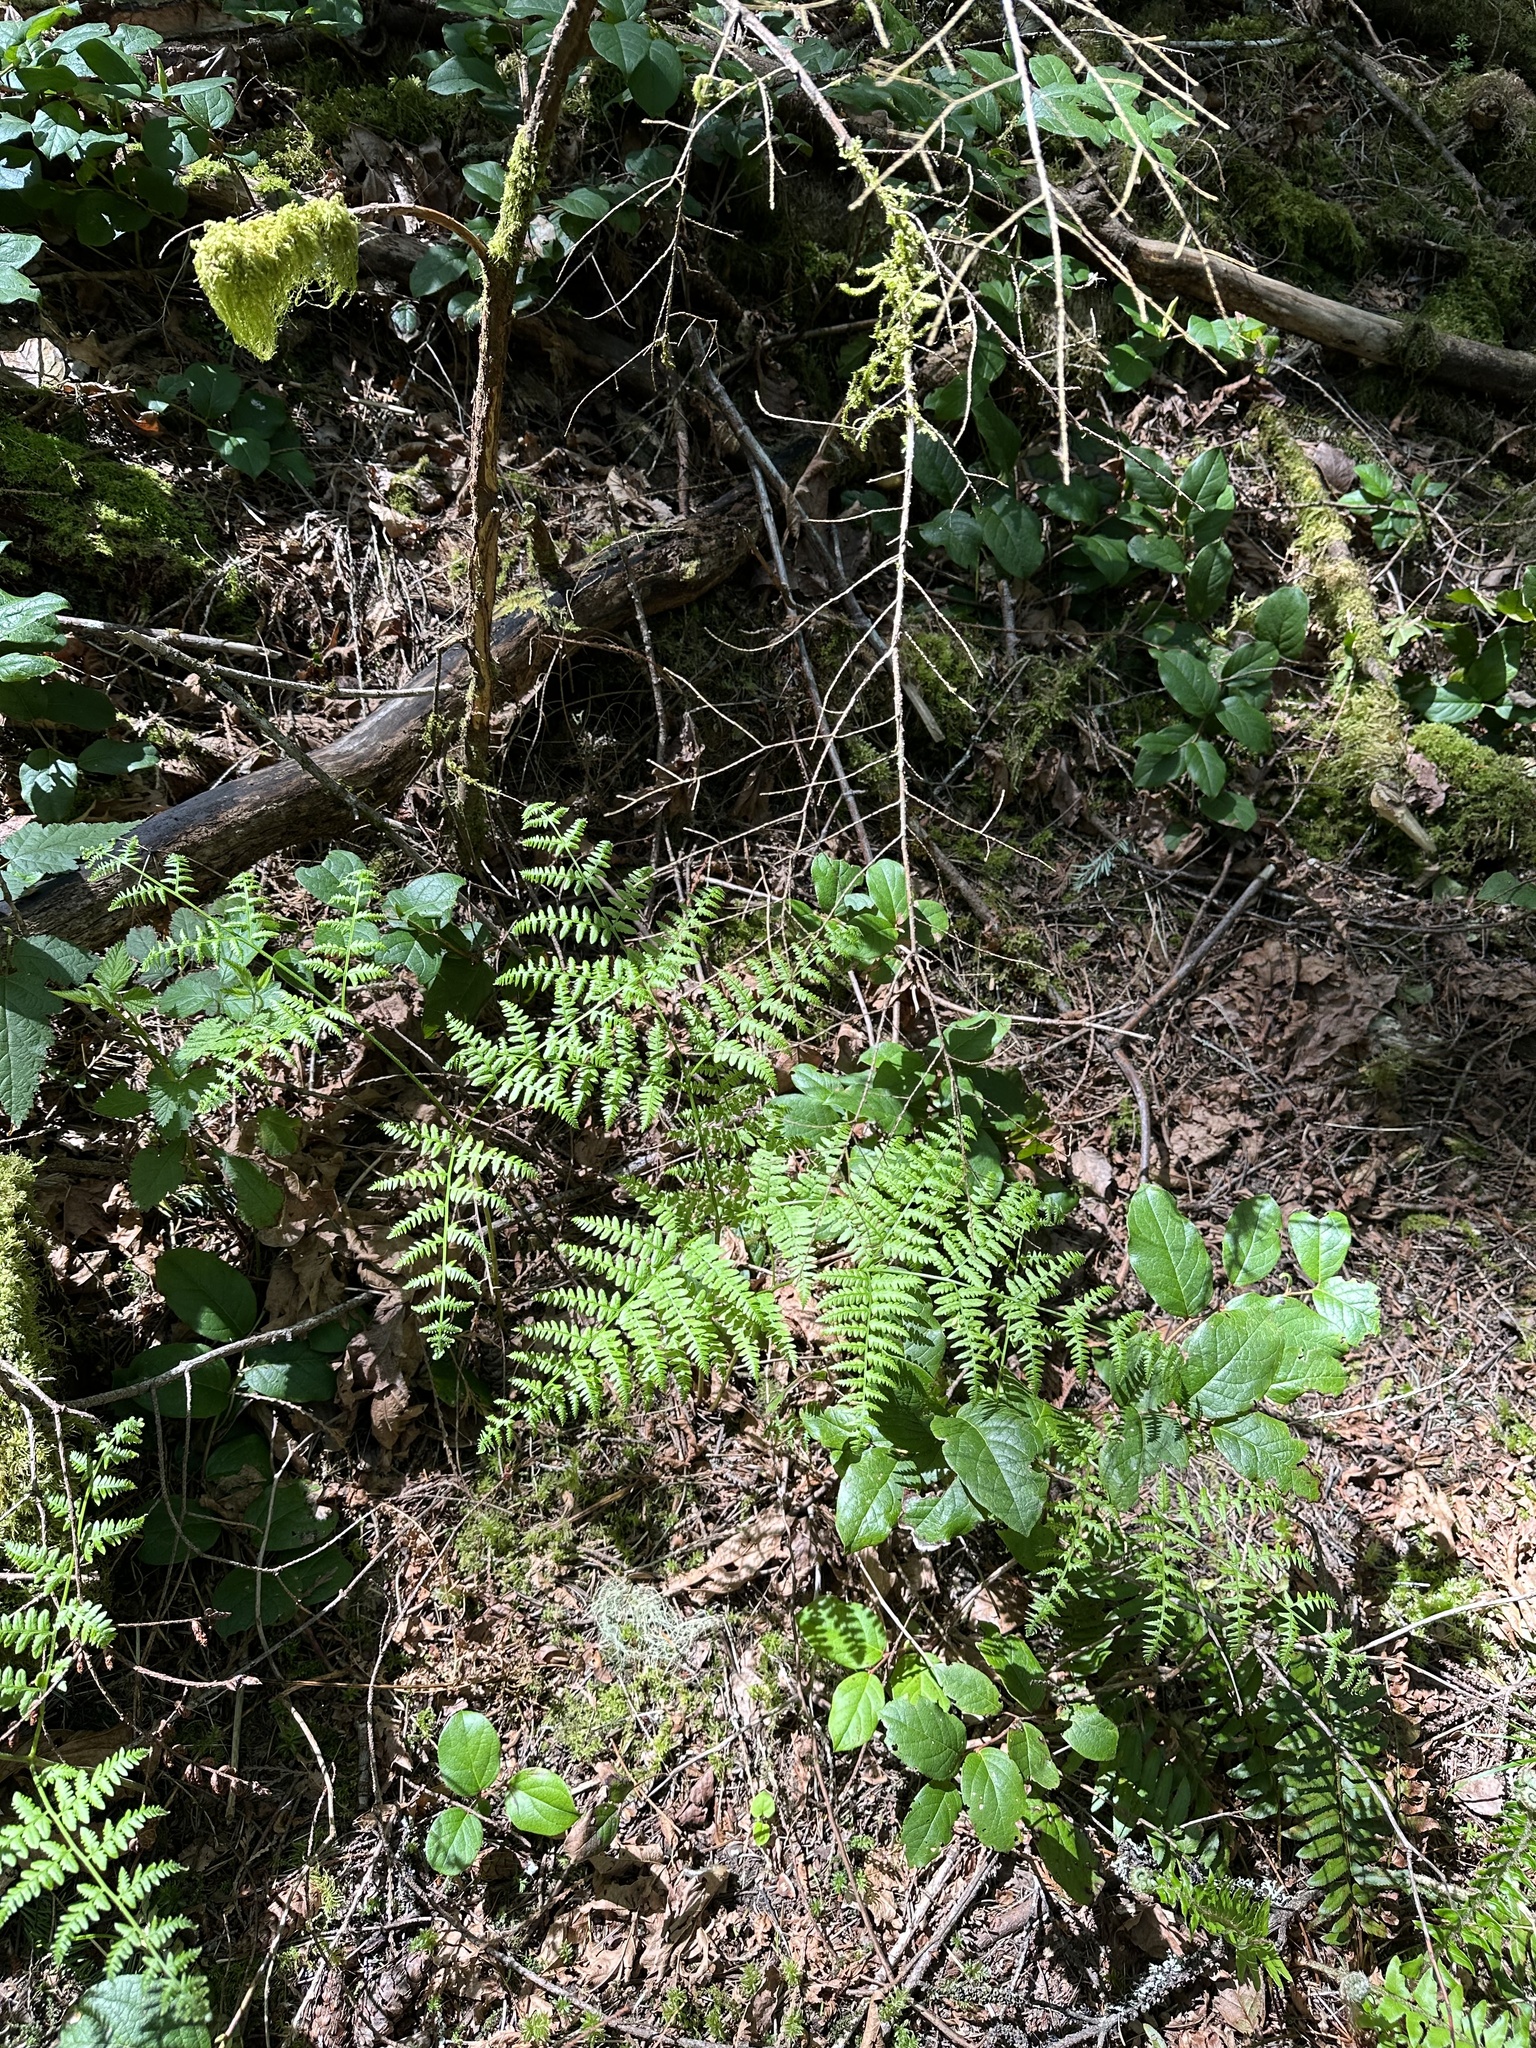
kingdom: Plantae
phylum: Tracheophyta
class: Polypodiopsida
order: Polypodiales
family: Dennstaedtiaceae
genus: Pteridium
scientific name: Pteridium aquilinum
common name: Bracken
